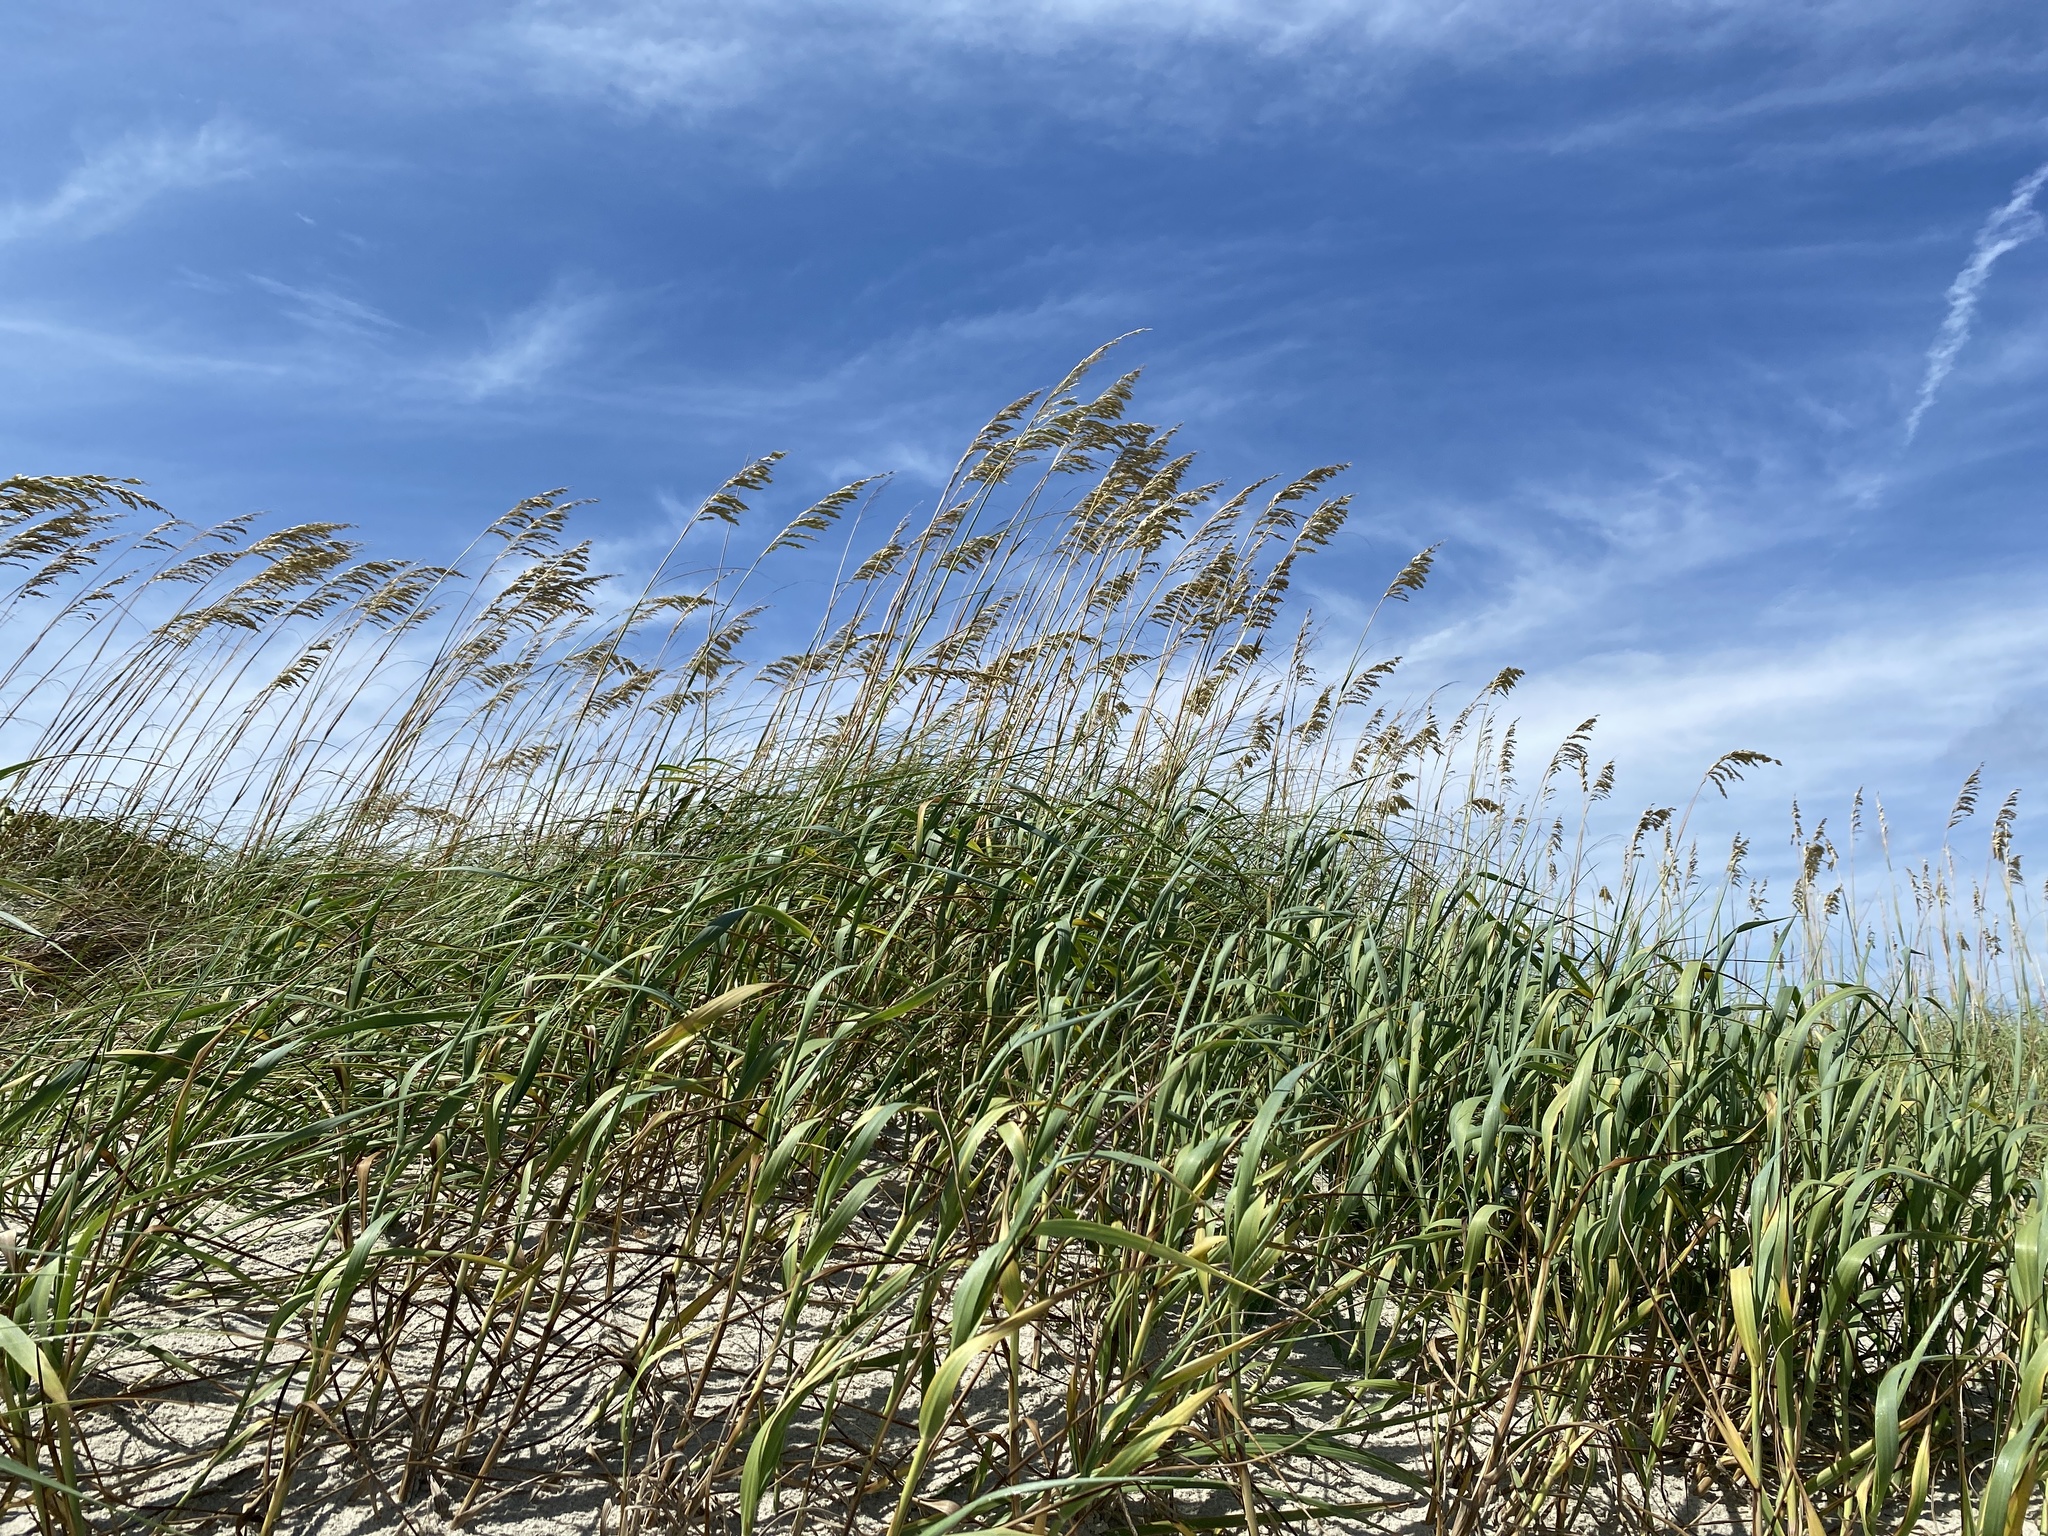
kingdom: Plantae
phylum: Tracheophyta
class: Liliopsida
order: Poales
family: Poaceae
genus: Uniola
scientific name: Uniola paniculata
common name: Seaside-oats
